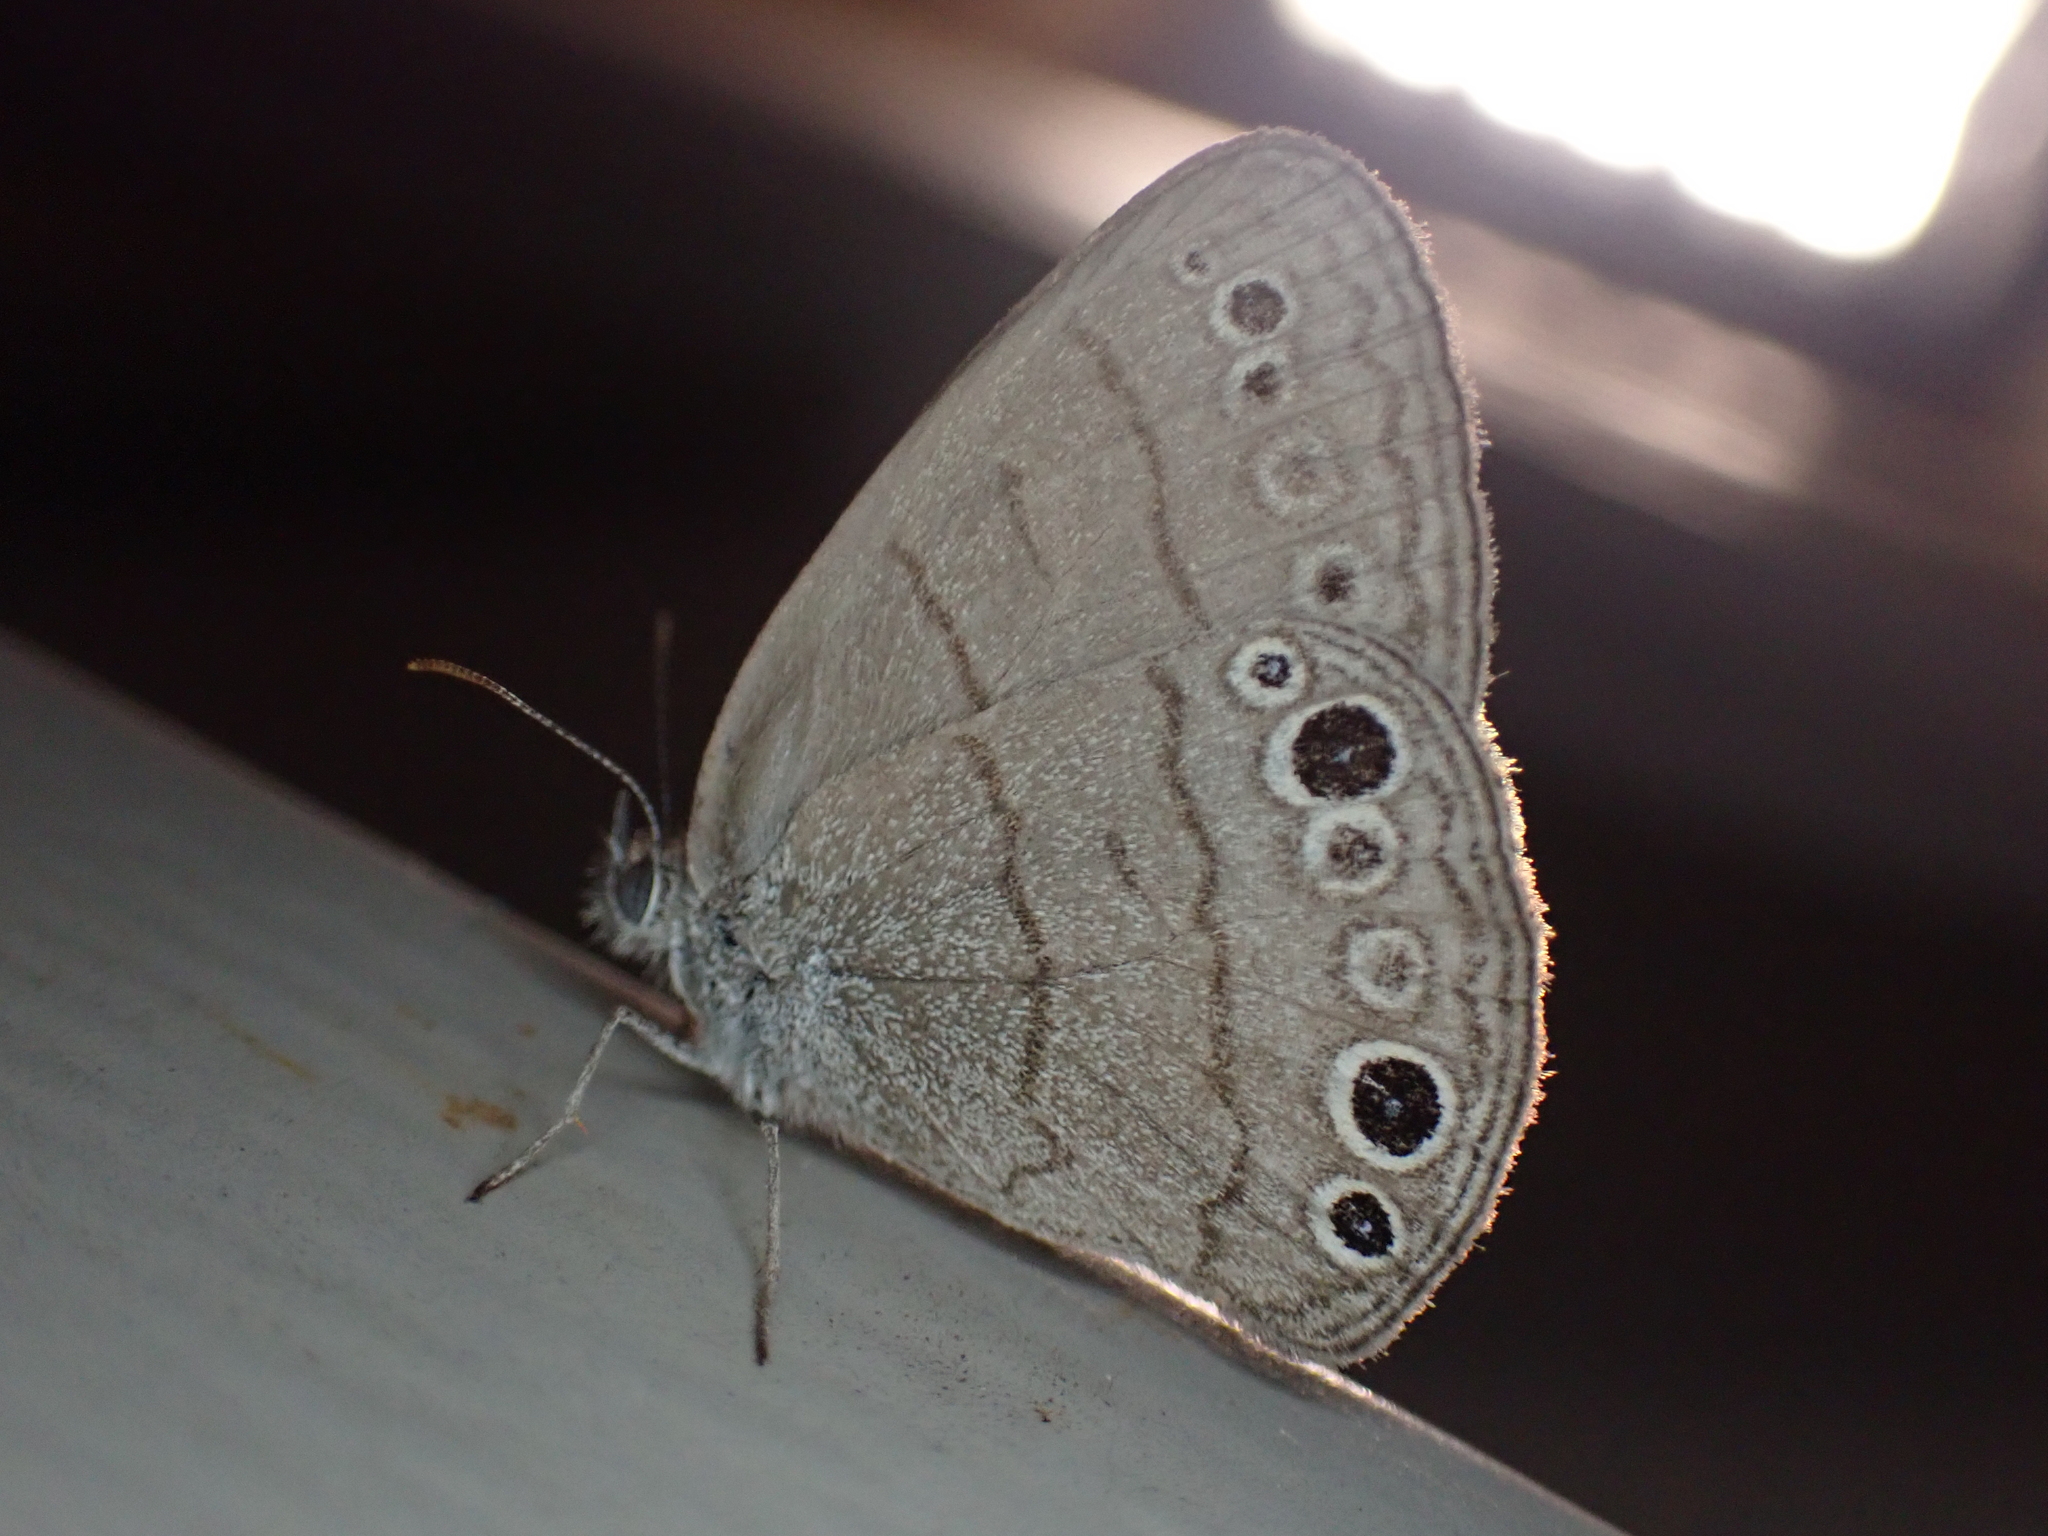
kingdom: Animalia
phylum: Arthropoda
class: Insecta
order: Lepidoptera
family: Nymphalidae
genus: Hermeuptychia
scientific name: Hermeuptychia hermes
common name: Hermes satyr
